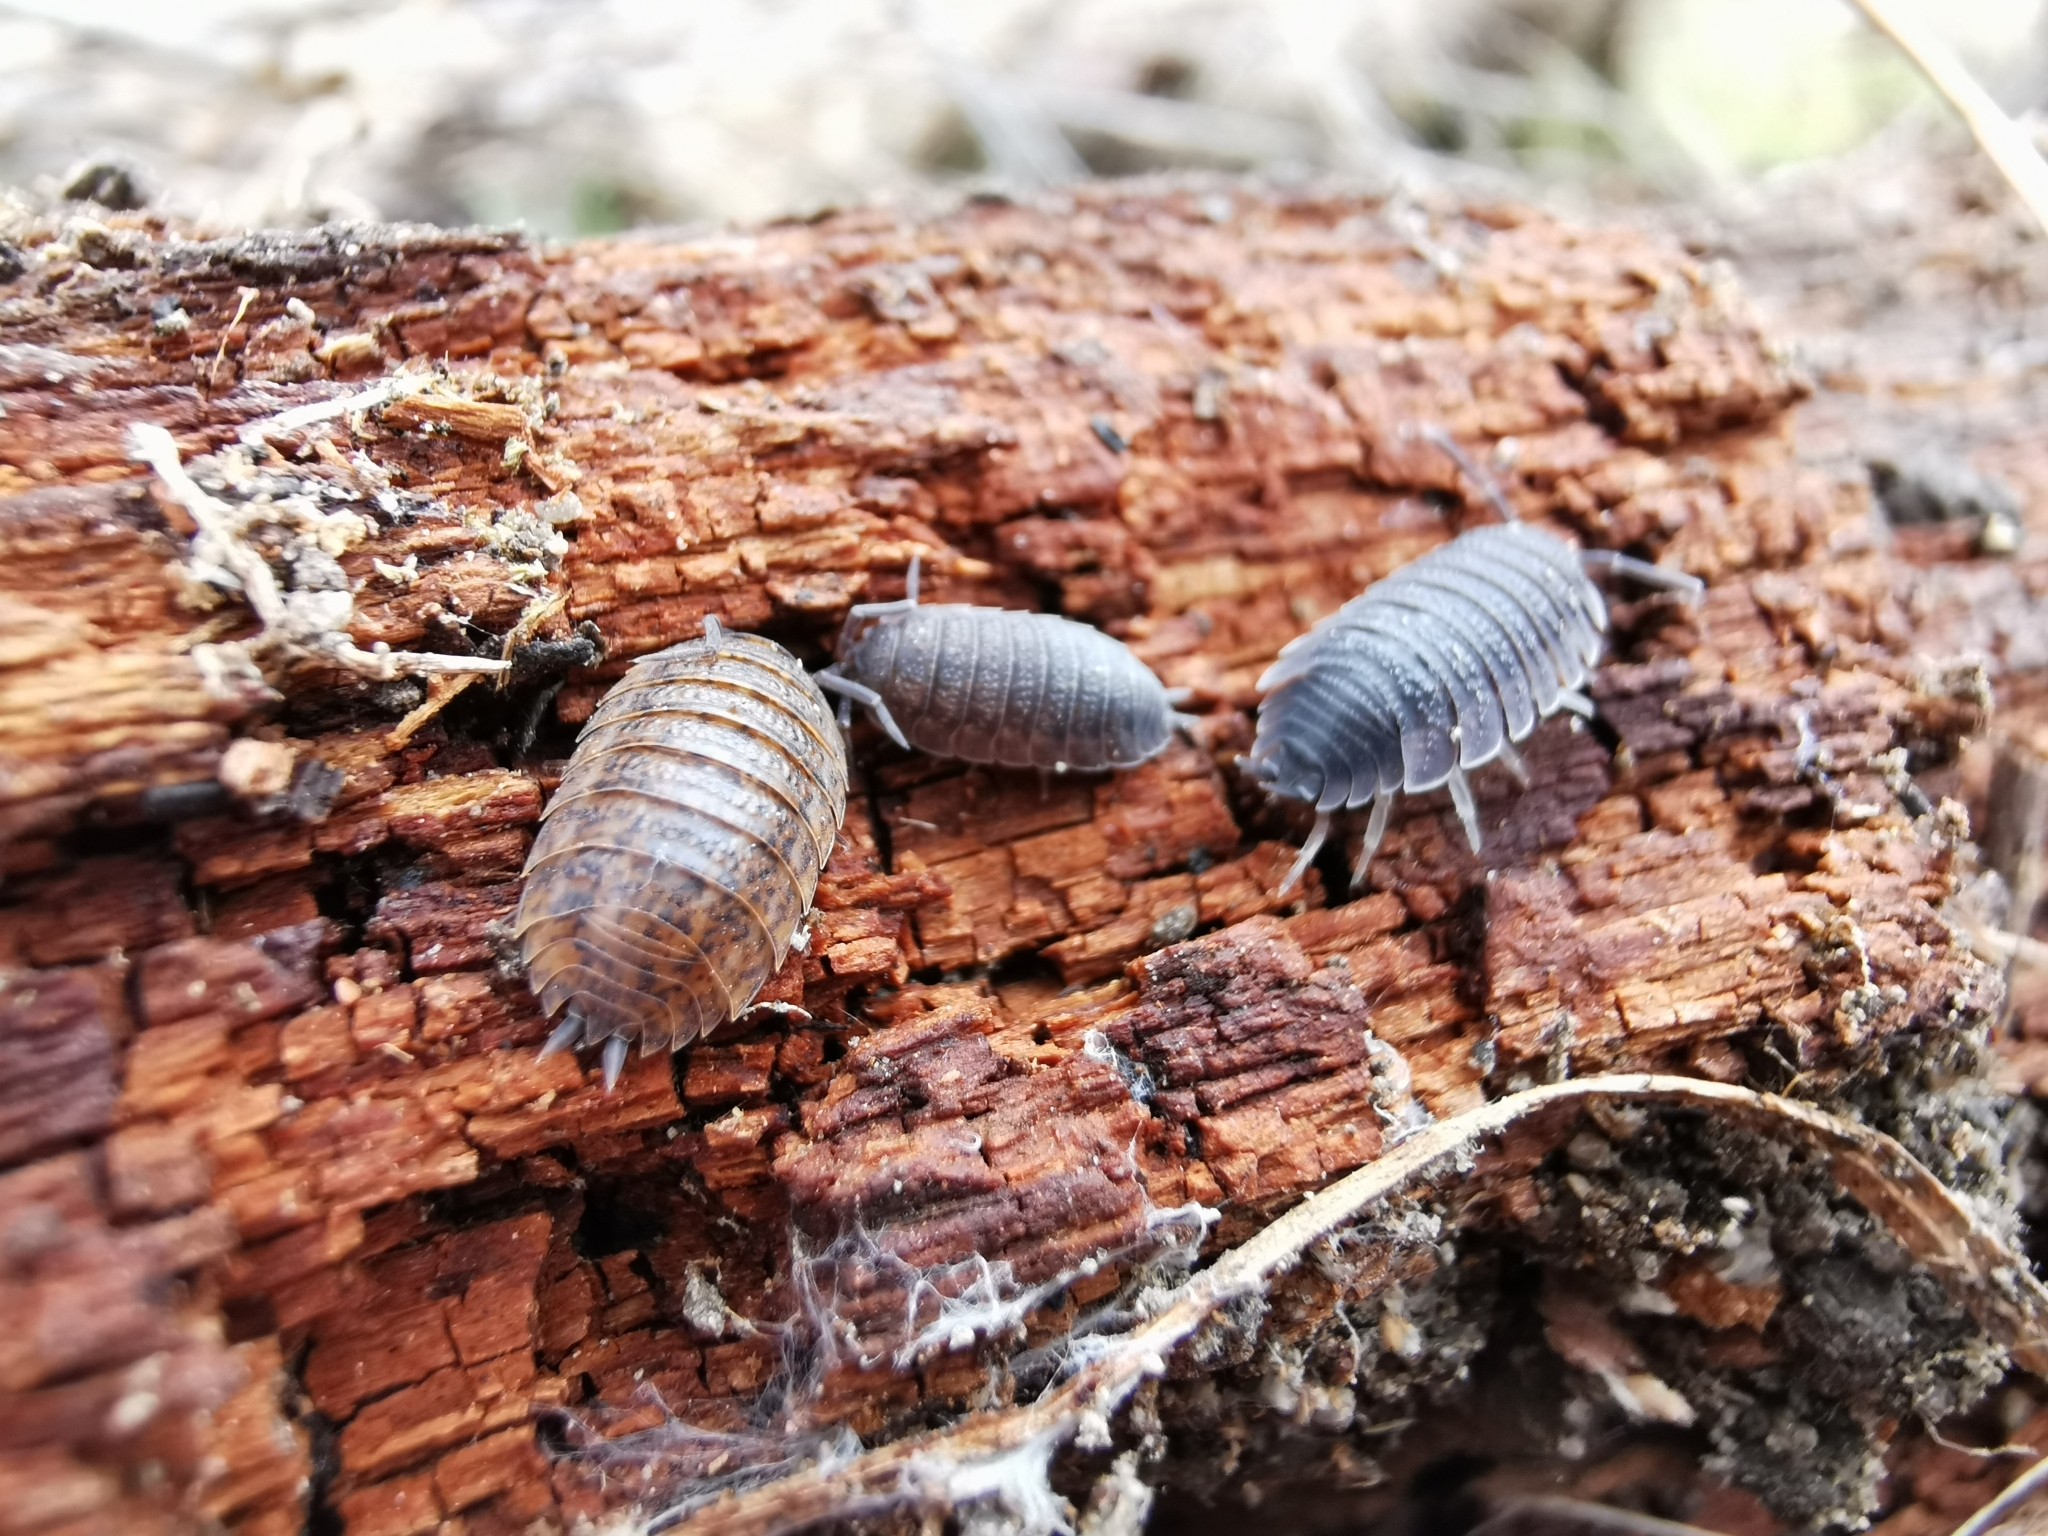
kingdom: Animalia
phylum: Arthropoda
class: Malacostraca
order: Isopoda
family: Porcellionidae
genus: Porcellio
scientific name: Porcellio scaber
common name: Common rough woodlouse
